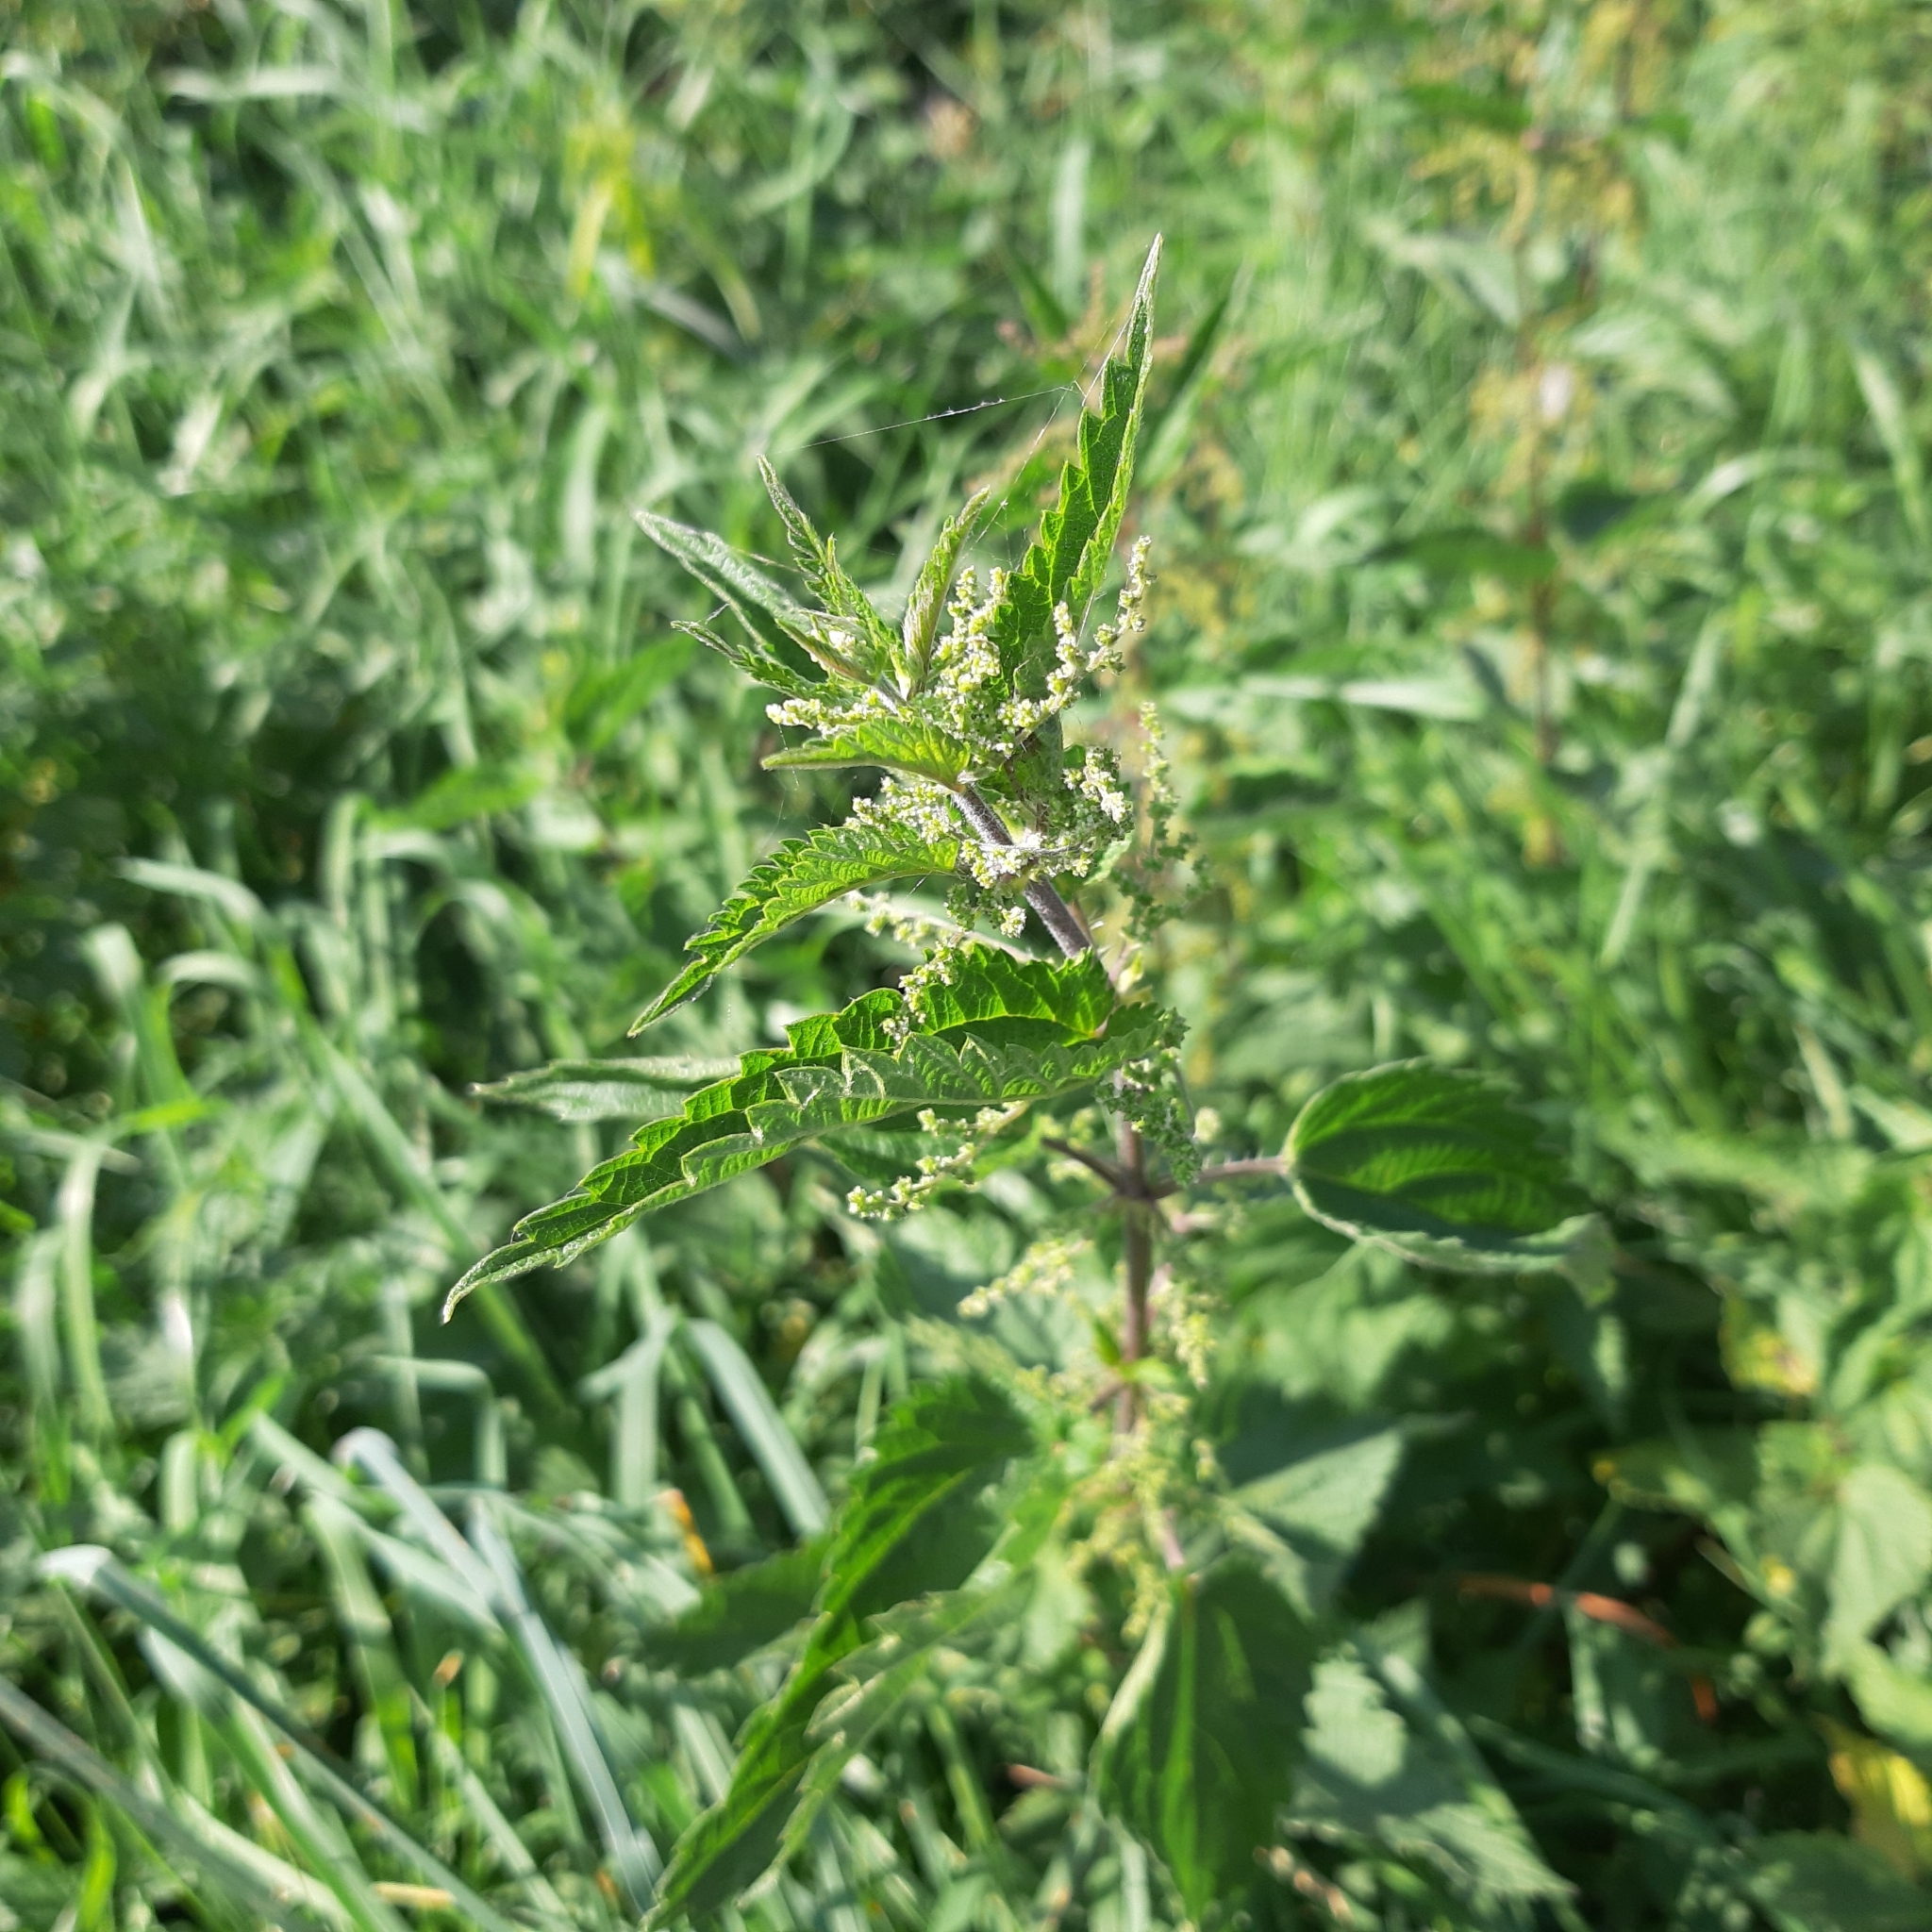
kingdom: Plantae
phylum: Tracheophyta
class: Magnoliopsida
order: Rosales
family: Urticaceae
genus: Urtica
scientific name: Urtica dioica
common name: Common nettle
